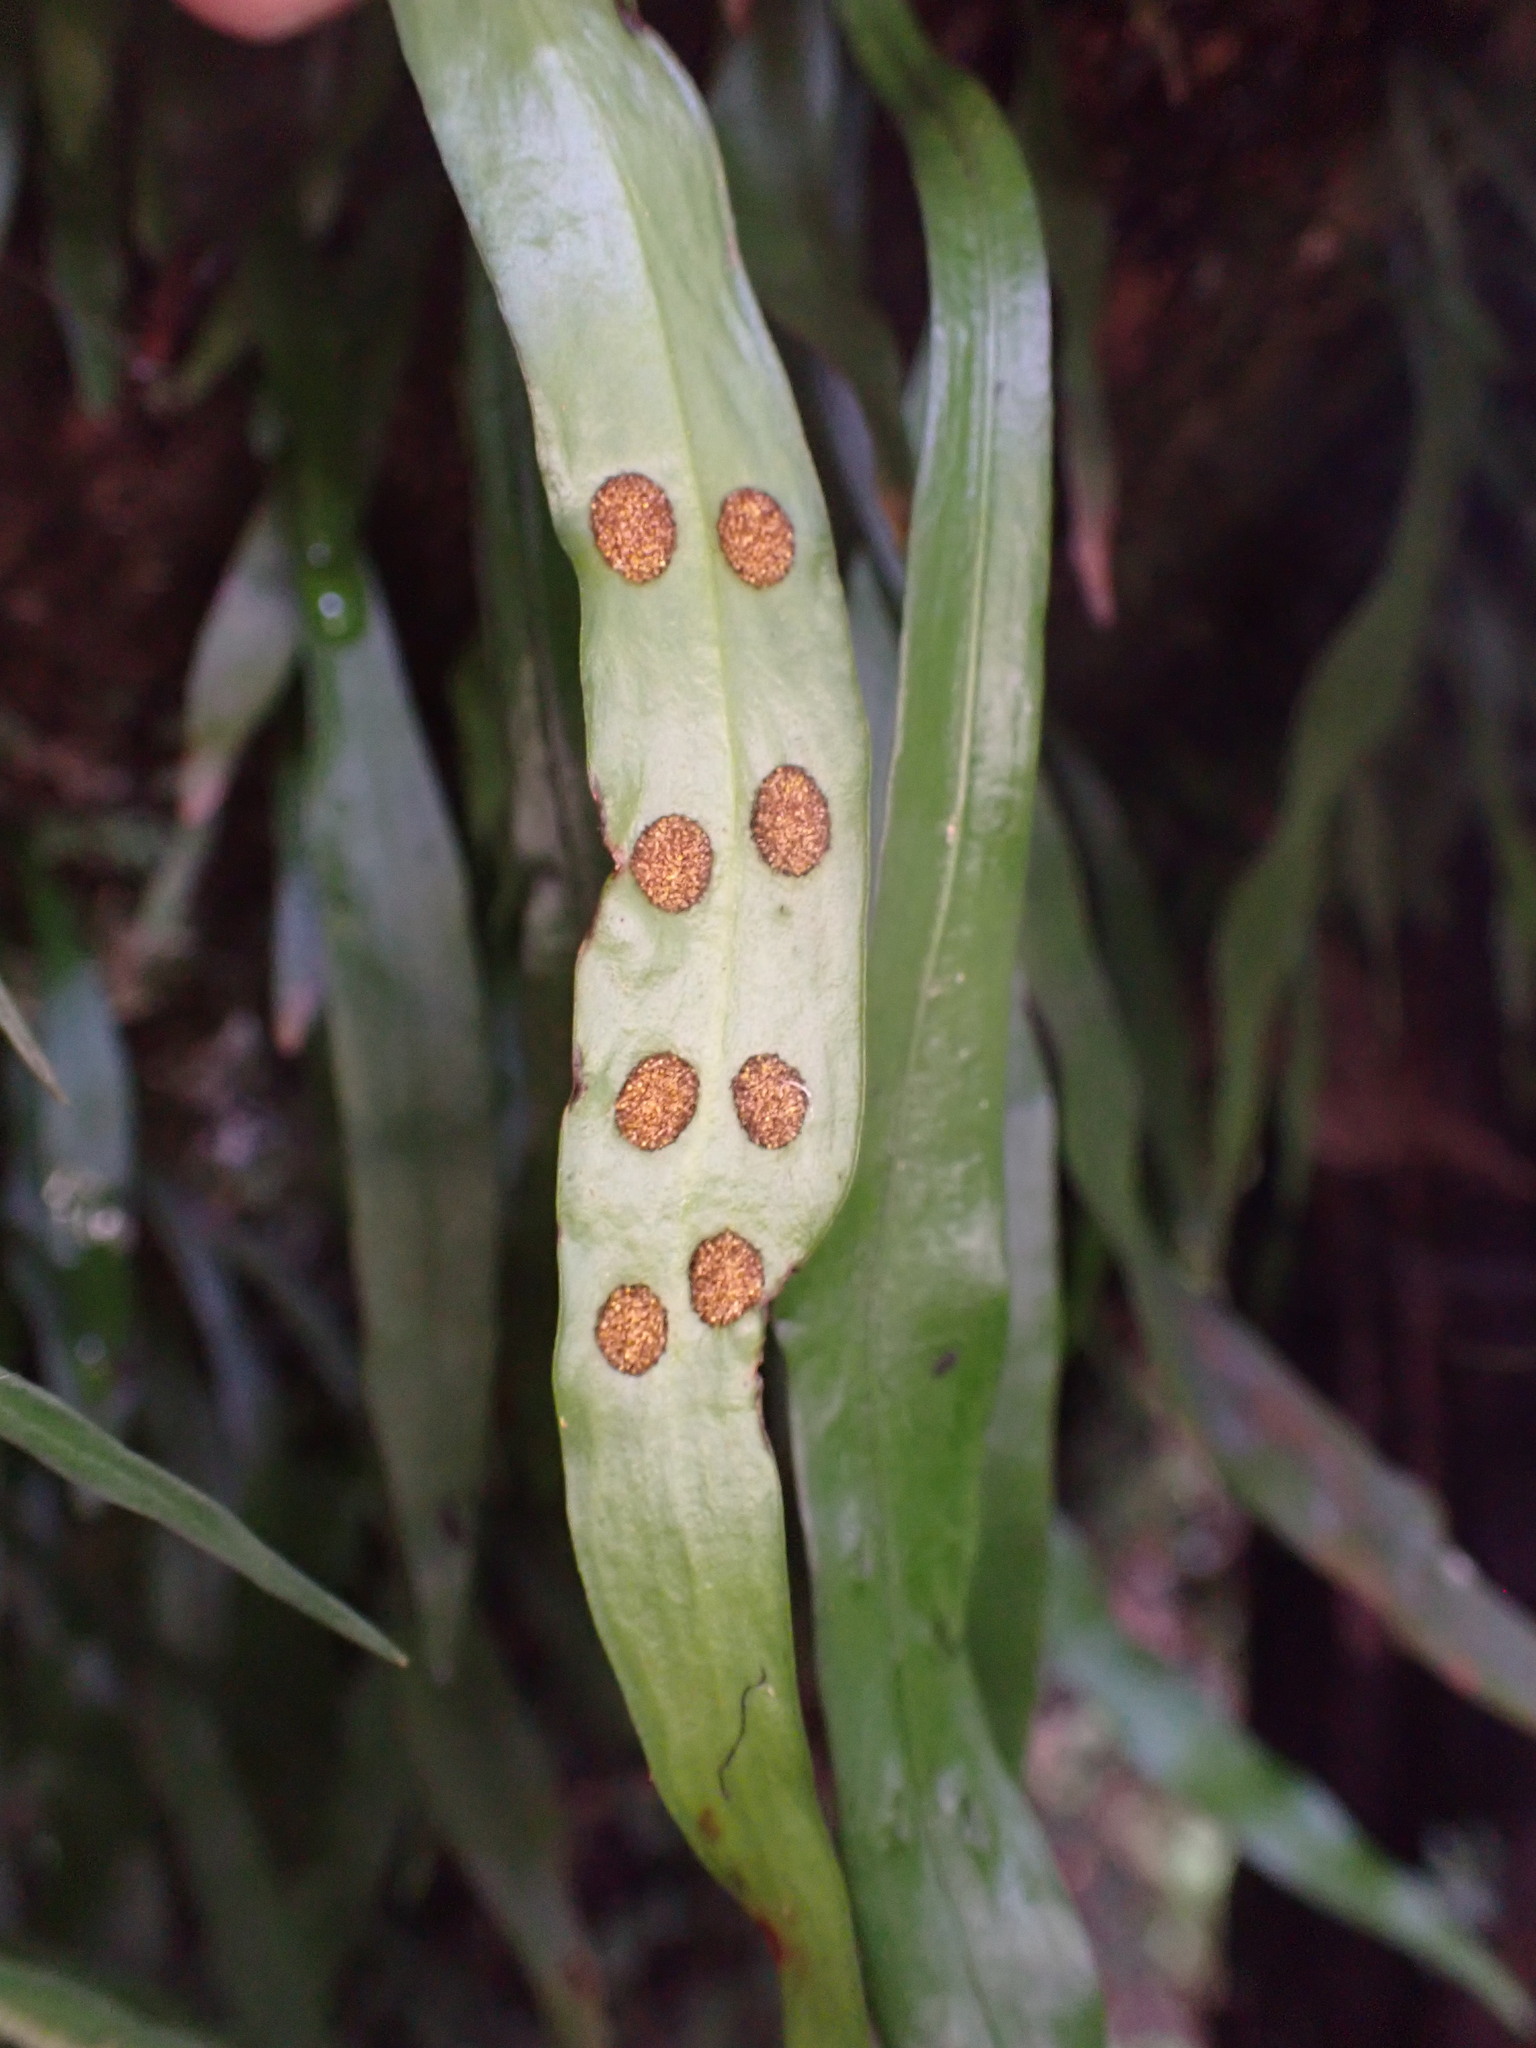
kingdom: Plantae
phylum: Tracheophyta
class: Polypodiopsida
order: Polypodiales
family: Polypodiaceae
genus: Loxogramme
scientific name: Loxogramme dictyopteris
